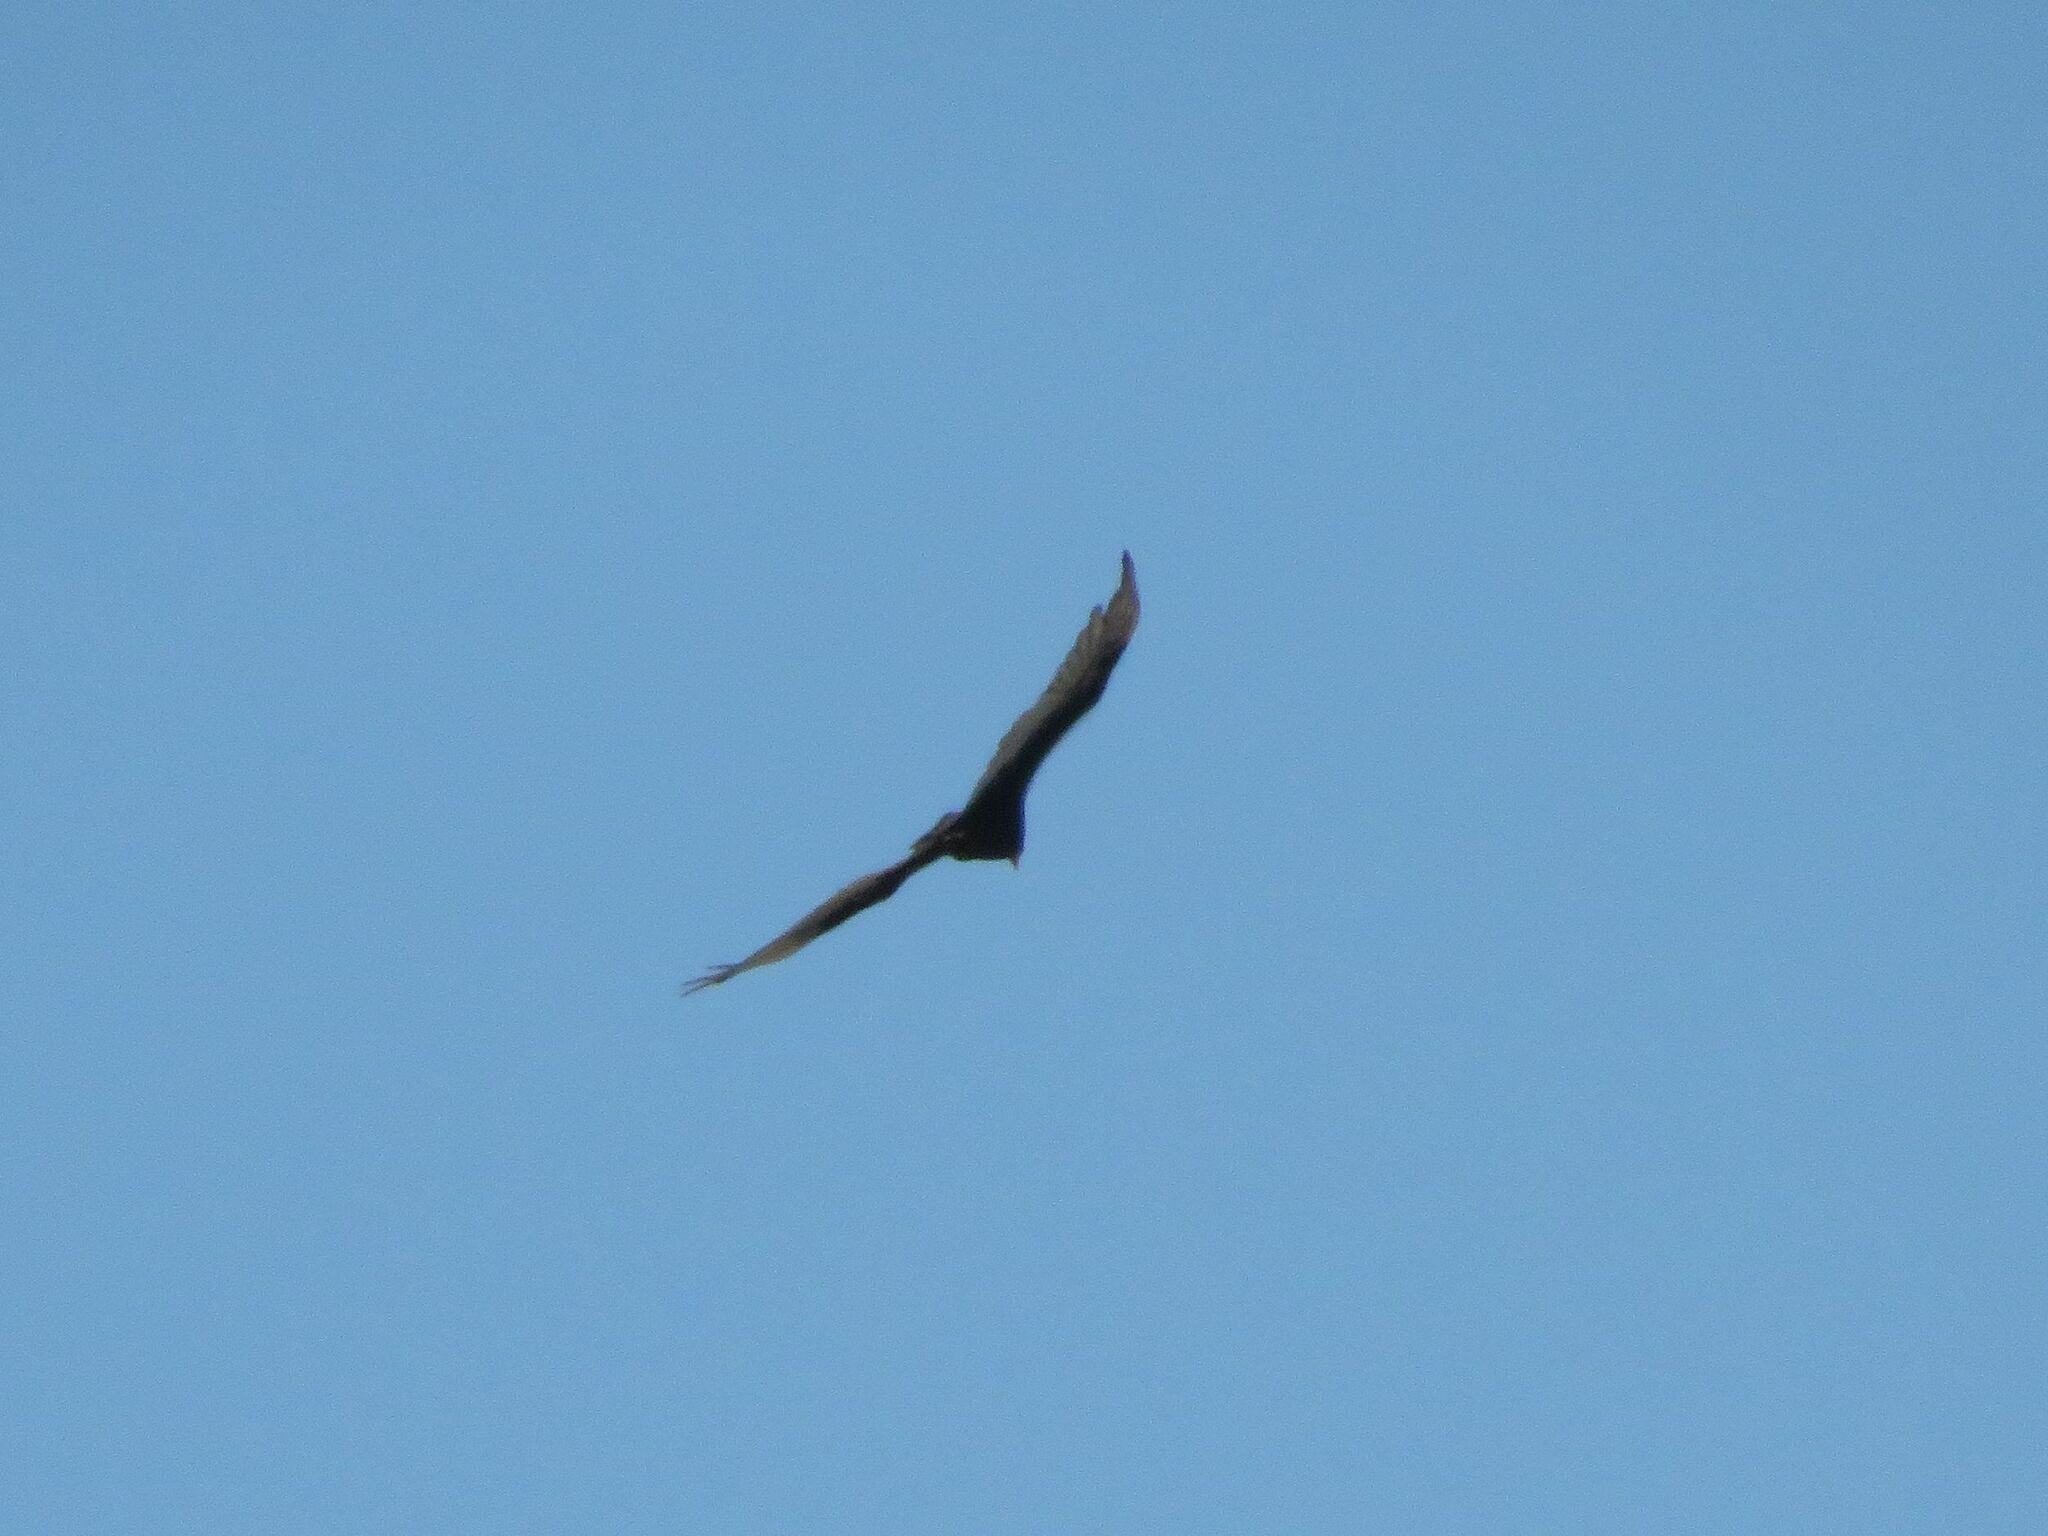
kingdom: Animalia
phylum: Chordata
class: Aves
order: Accipitriformes
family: Cathartidae
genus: Cathartes
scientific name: Cathartes aura
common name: Turkey vulture
